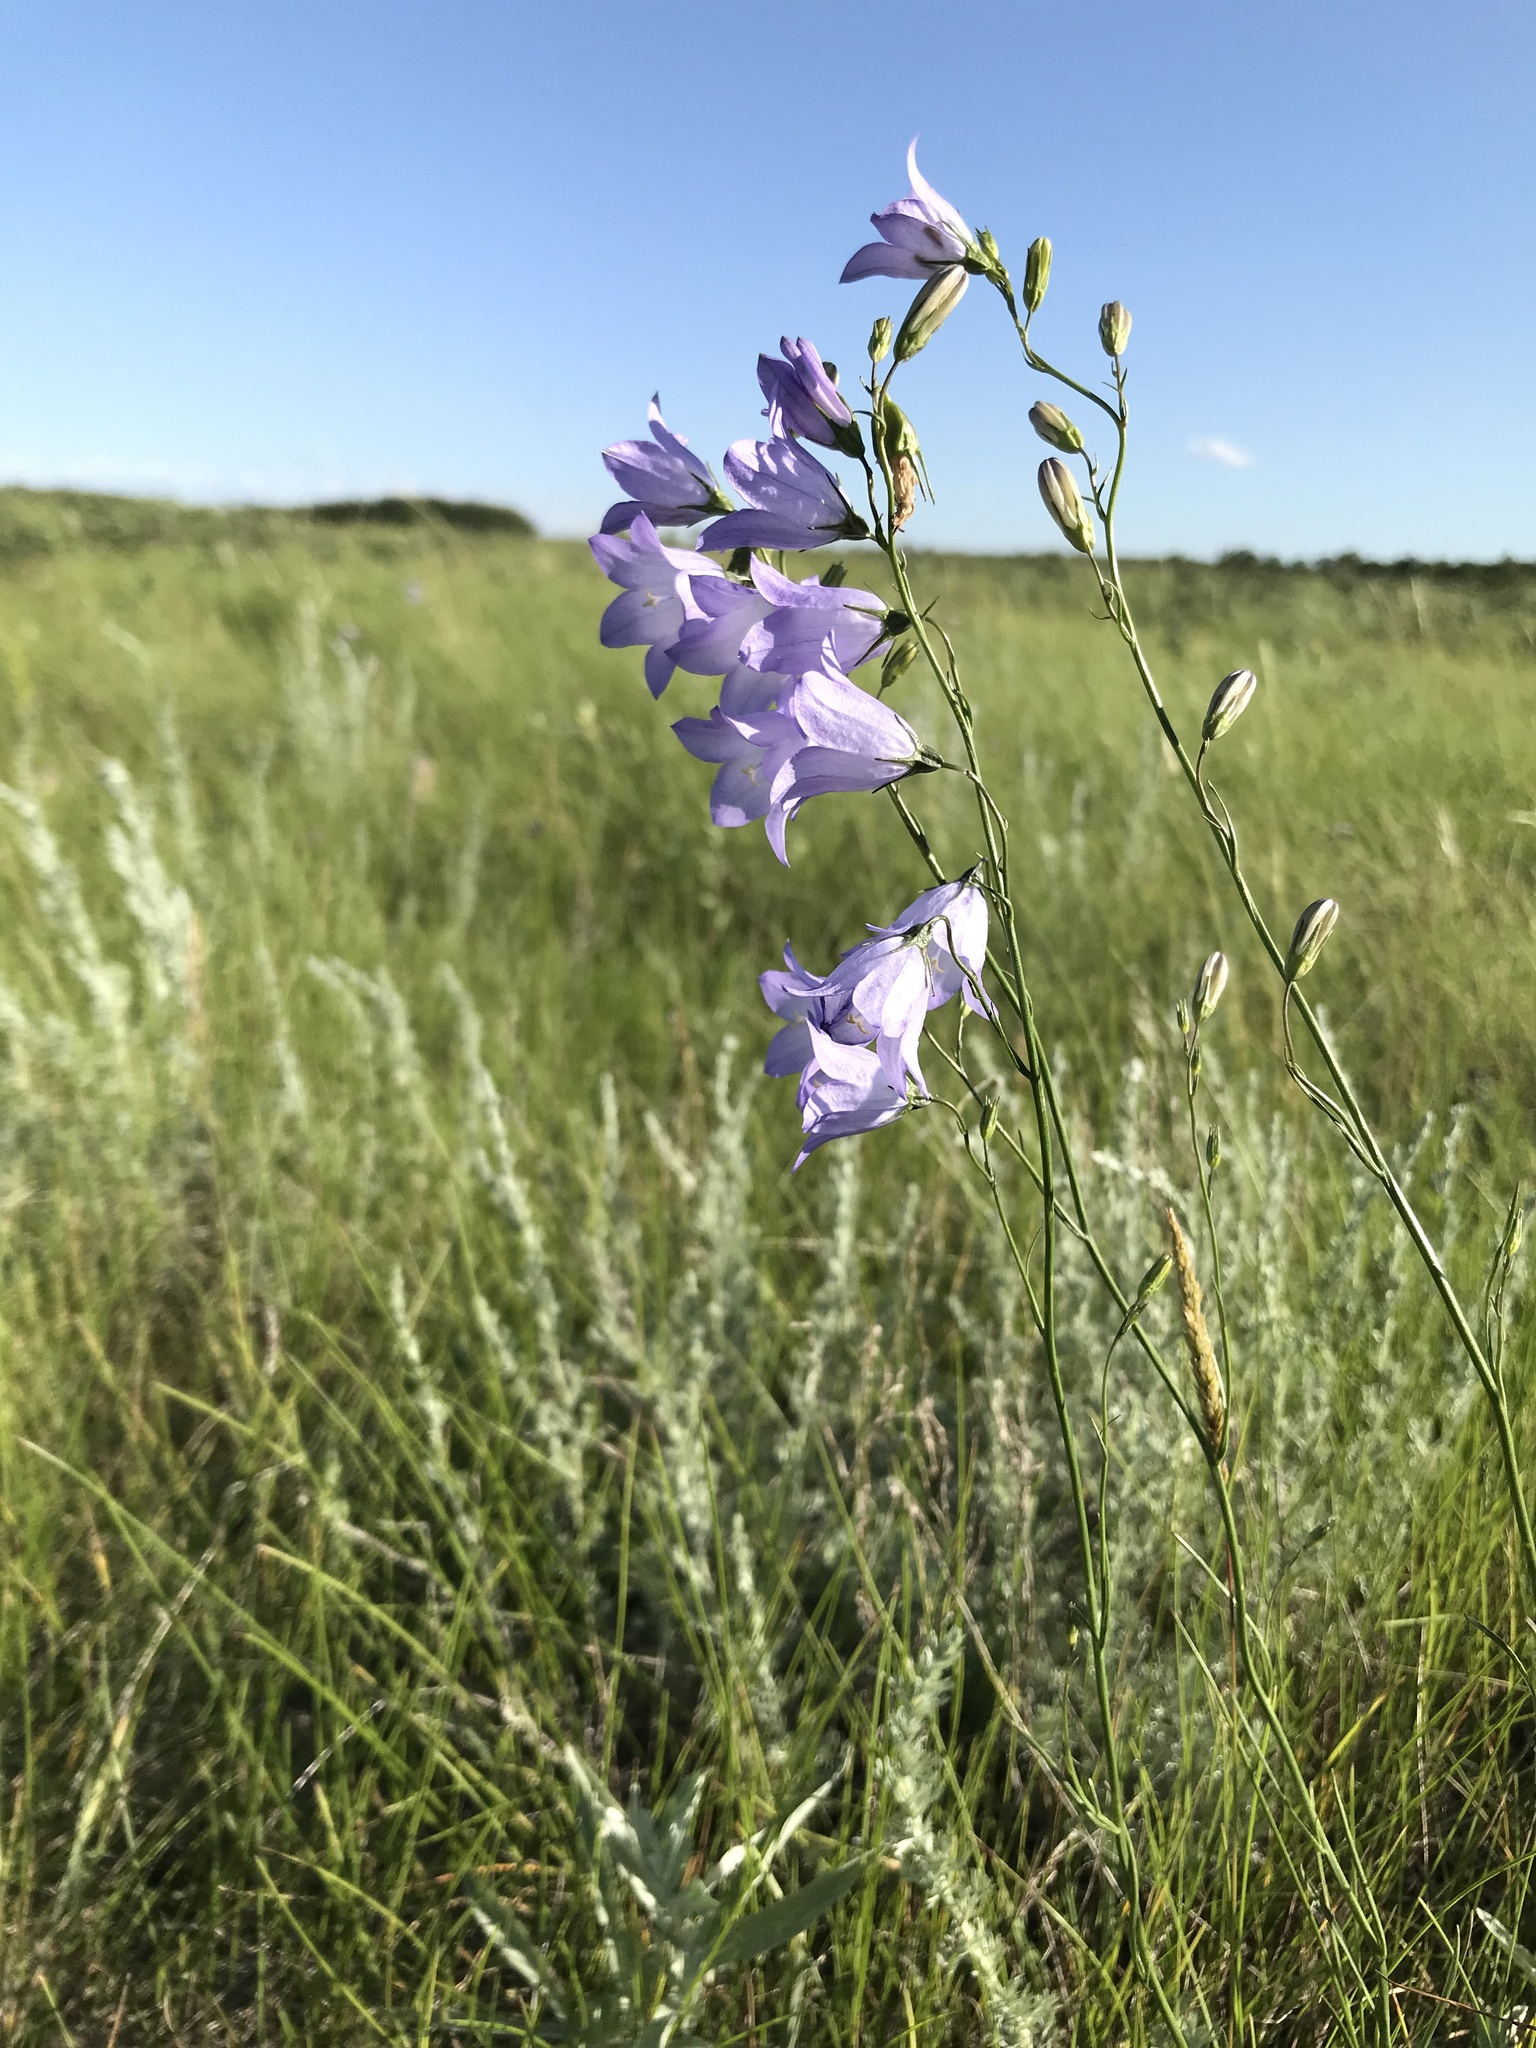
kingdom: Plantae
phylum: Tracheophyta
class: Magnoliopsida
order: Asterales
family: Campanulaceae
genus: Campanula
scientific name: Campanula petiolata
